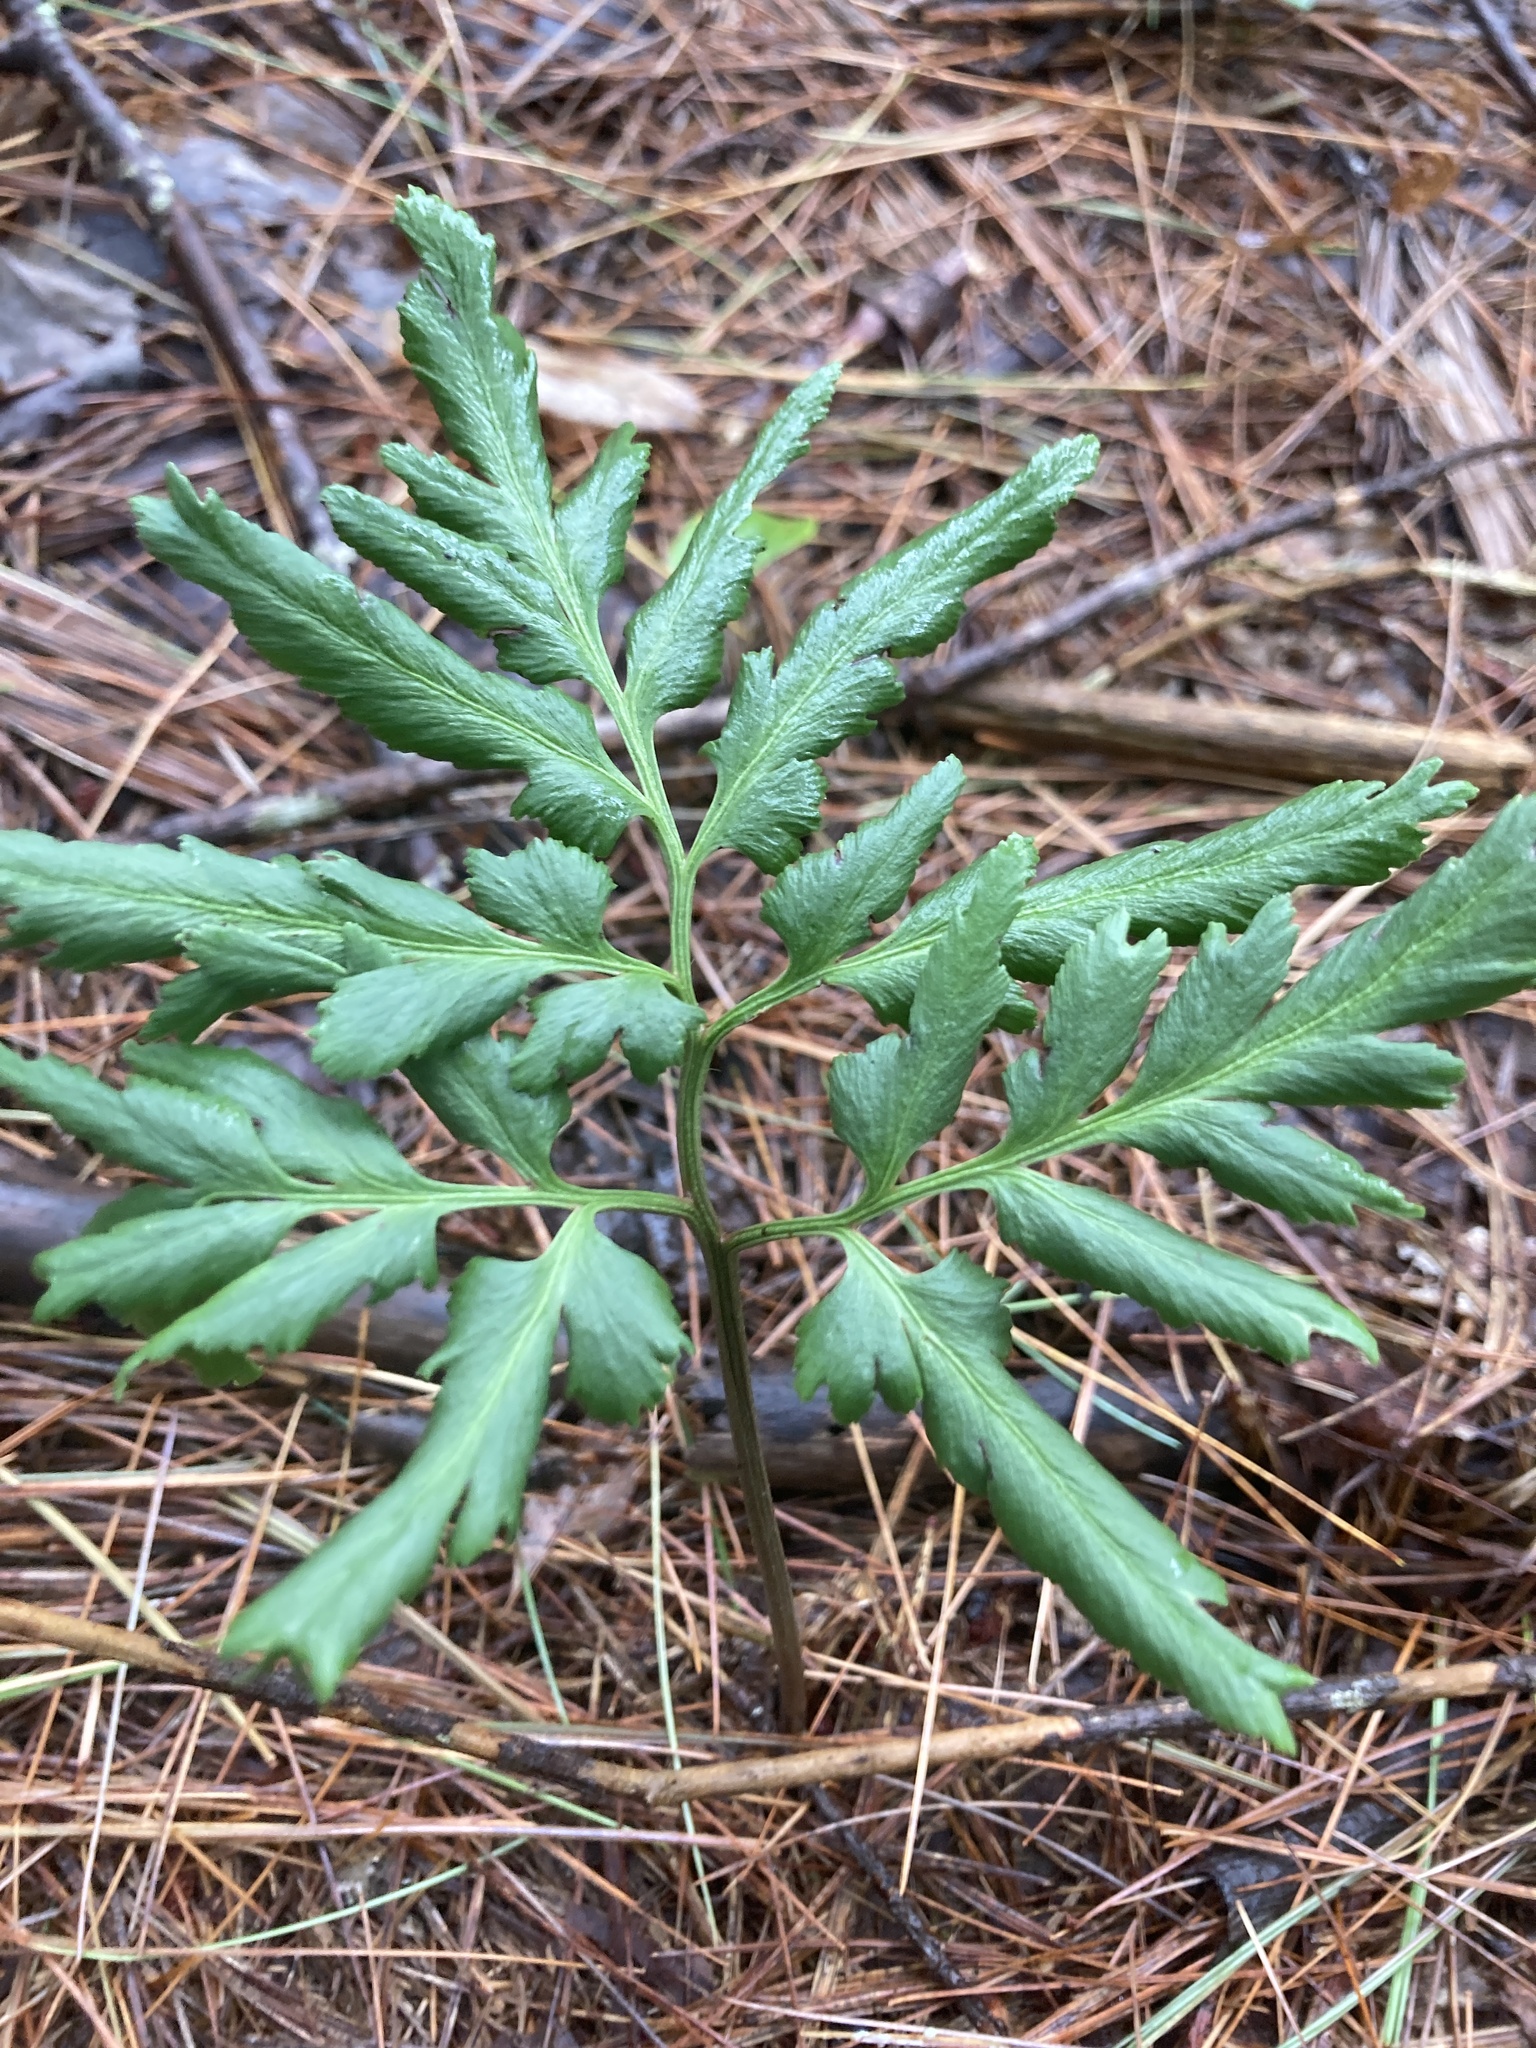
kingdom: Plantae
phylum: Tracheophyta
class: Polypodiopsida
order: Ophioglossales
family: Ophioglossaceae
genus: Sceptridium
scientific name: Sceptridium dissectum
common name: Cut-leaved grapefern
